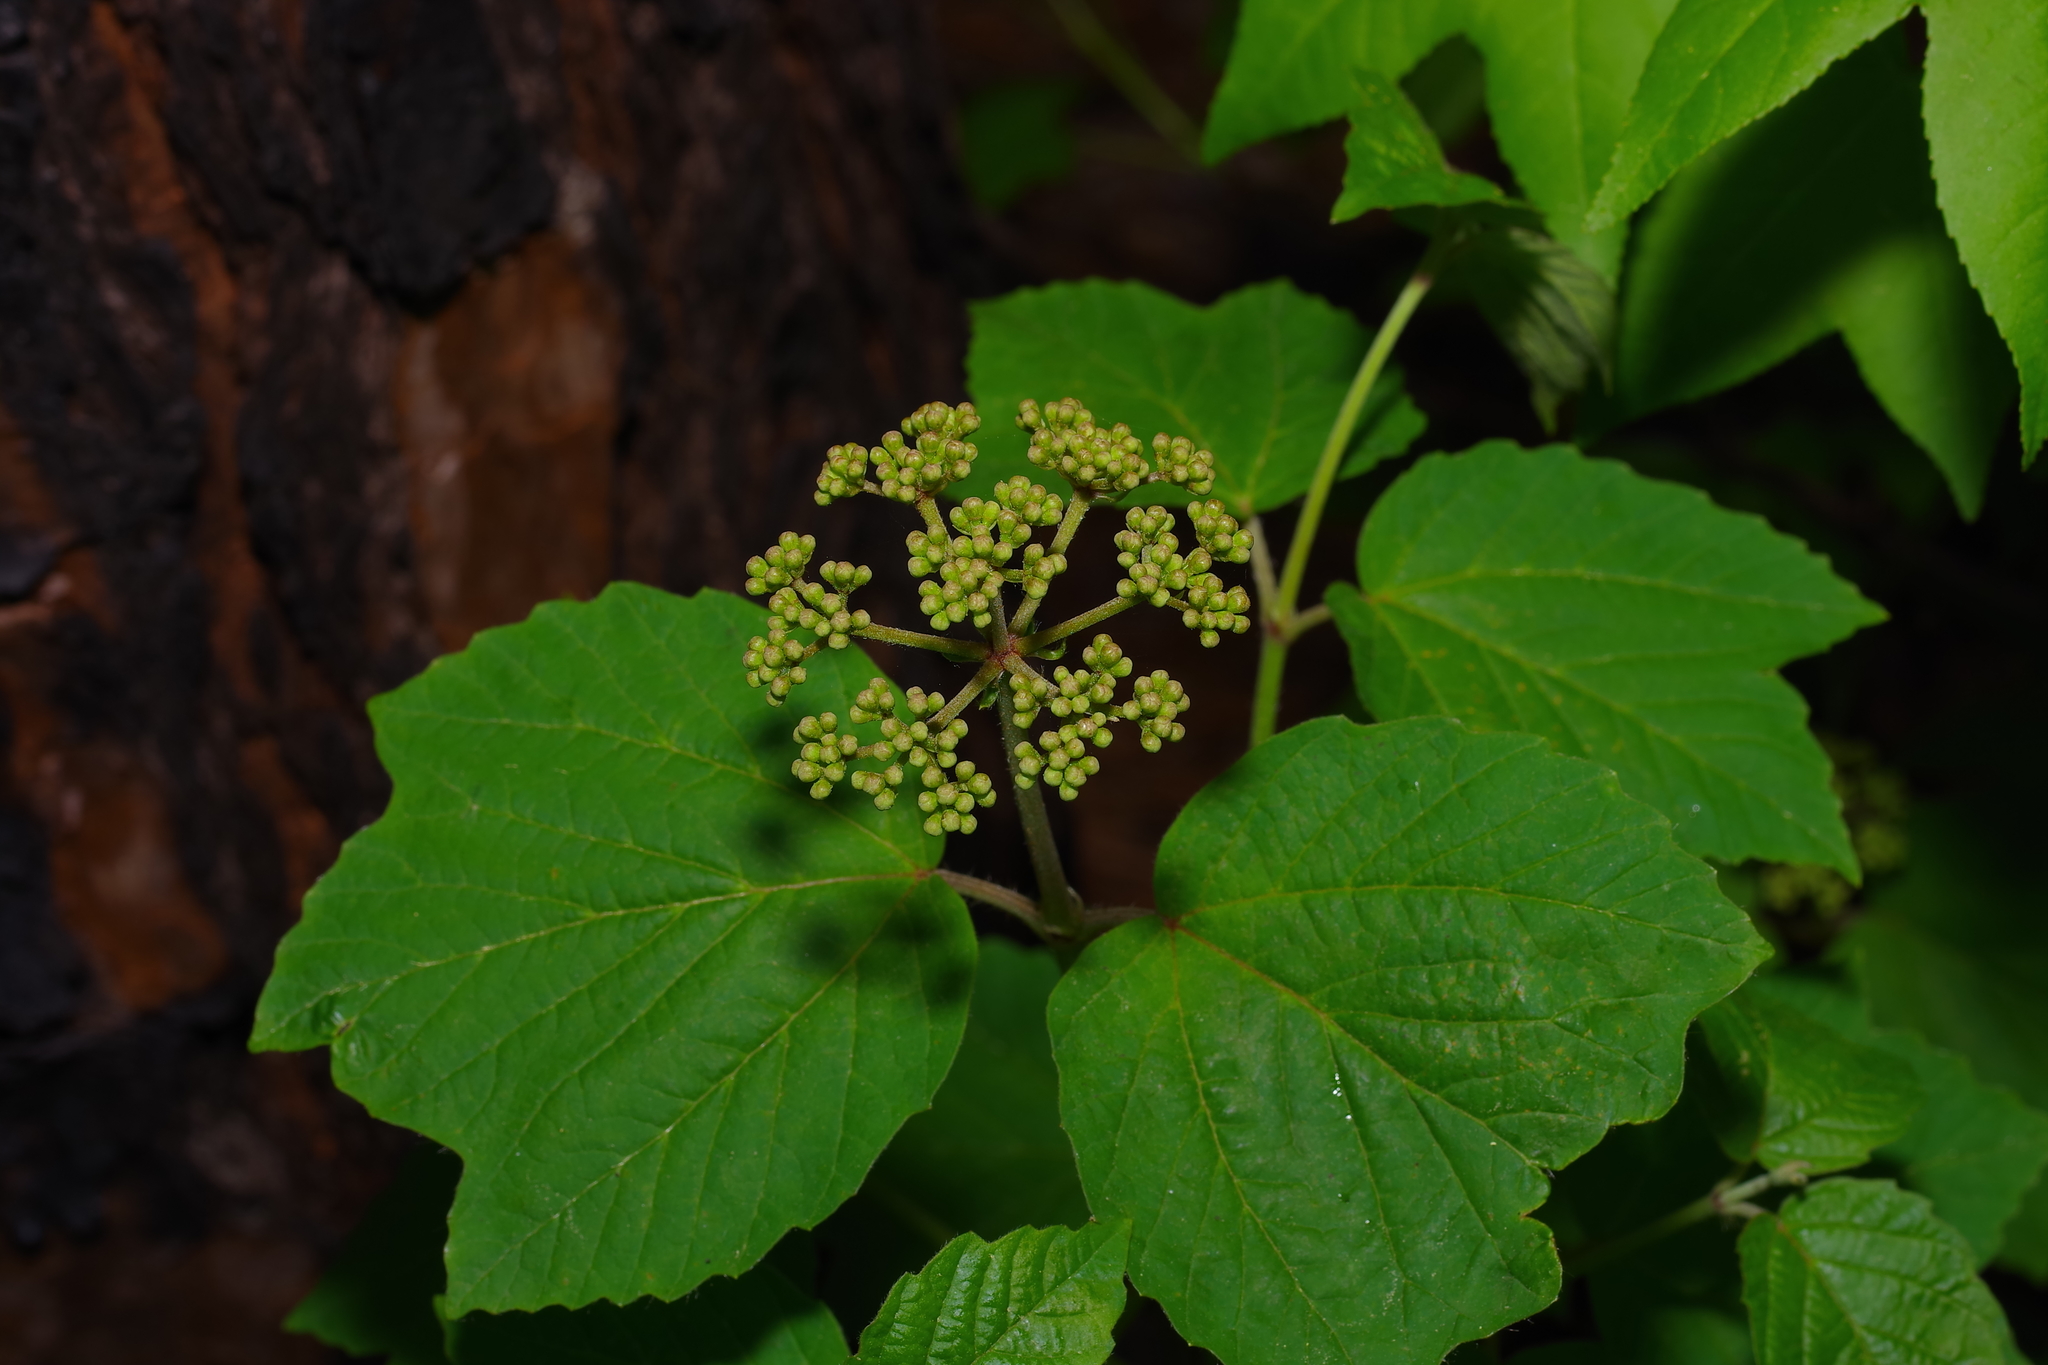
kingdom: Plantae
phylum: Tracheophyta
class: Magnoliopsida
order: Dipsacales
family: Viburnaceae
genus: Viburnum
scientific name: Viburnum acerifolium
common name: Dockmackie
